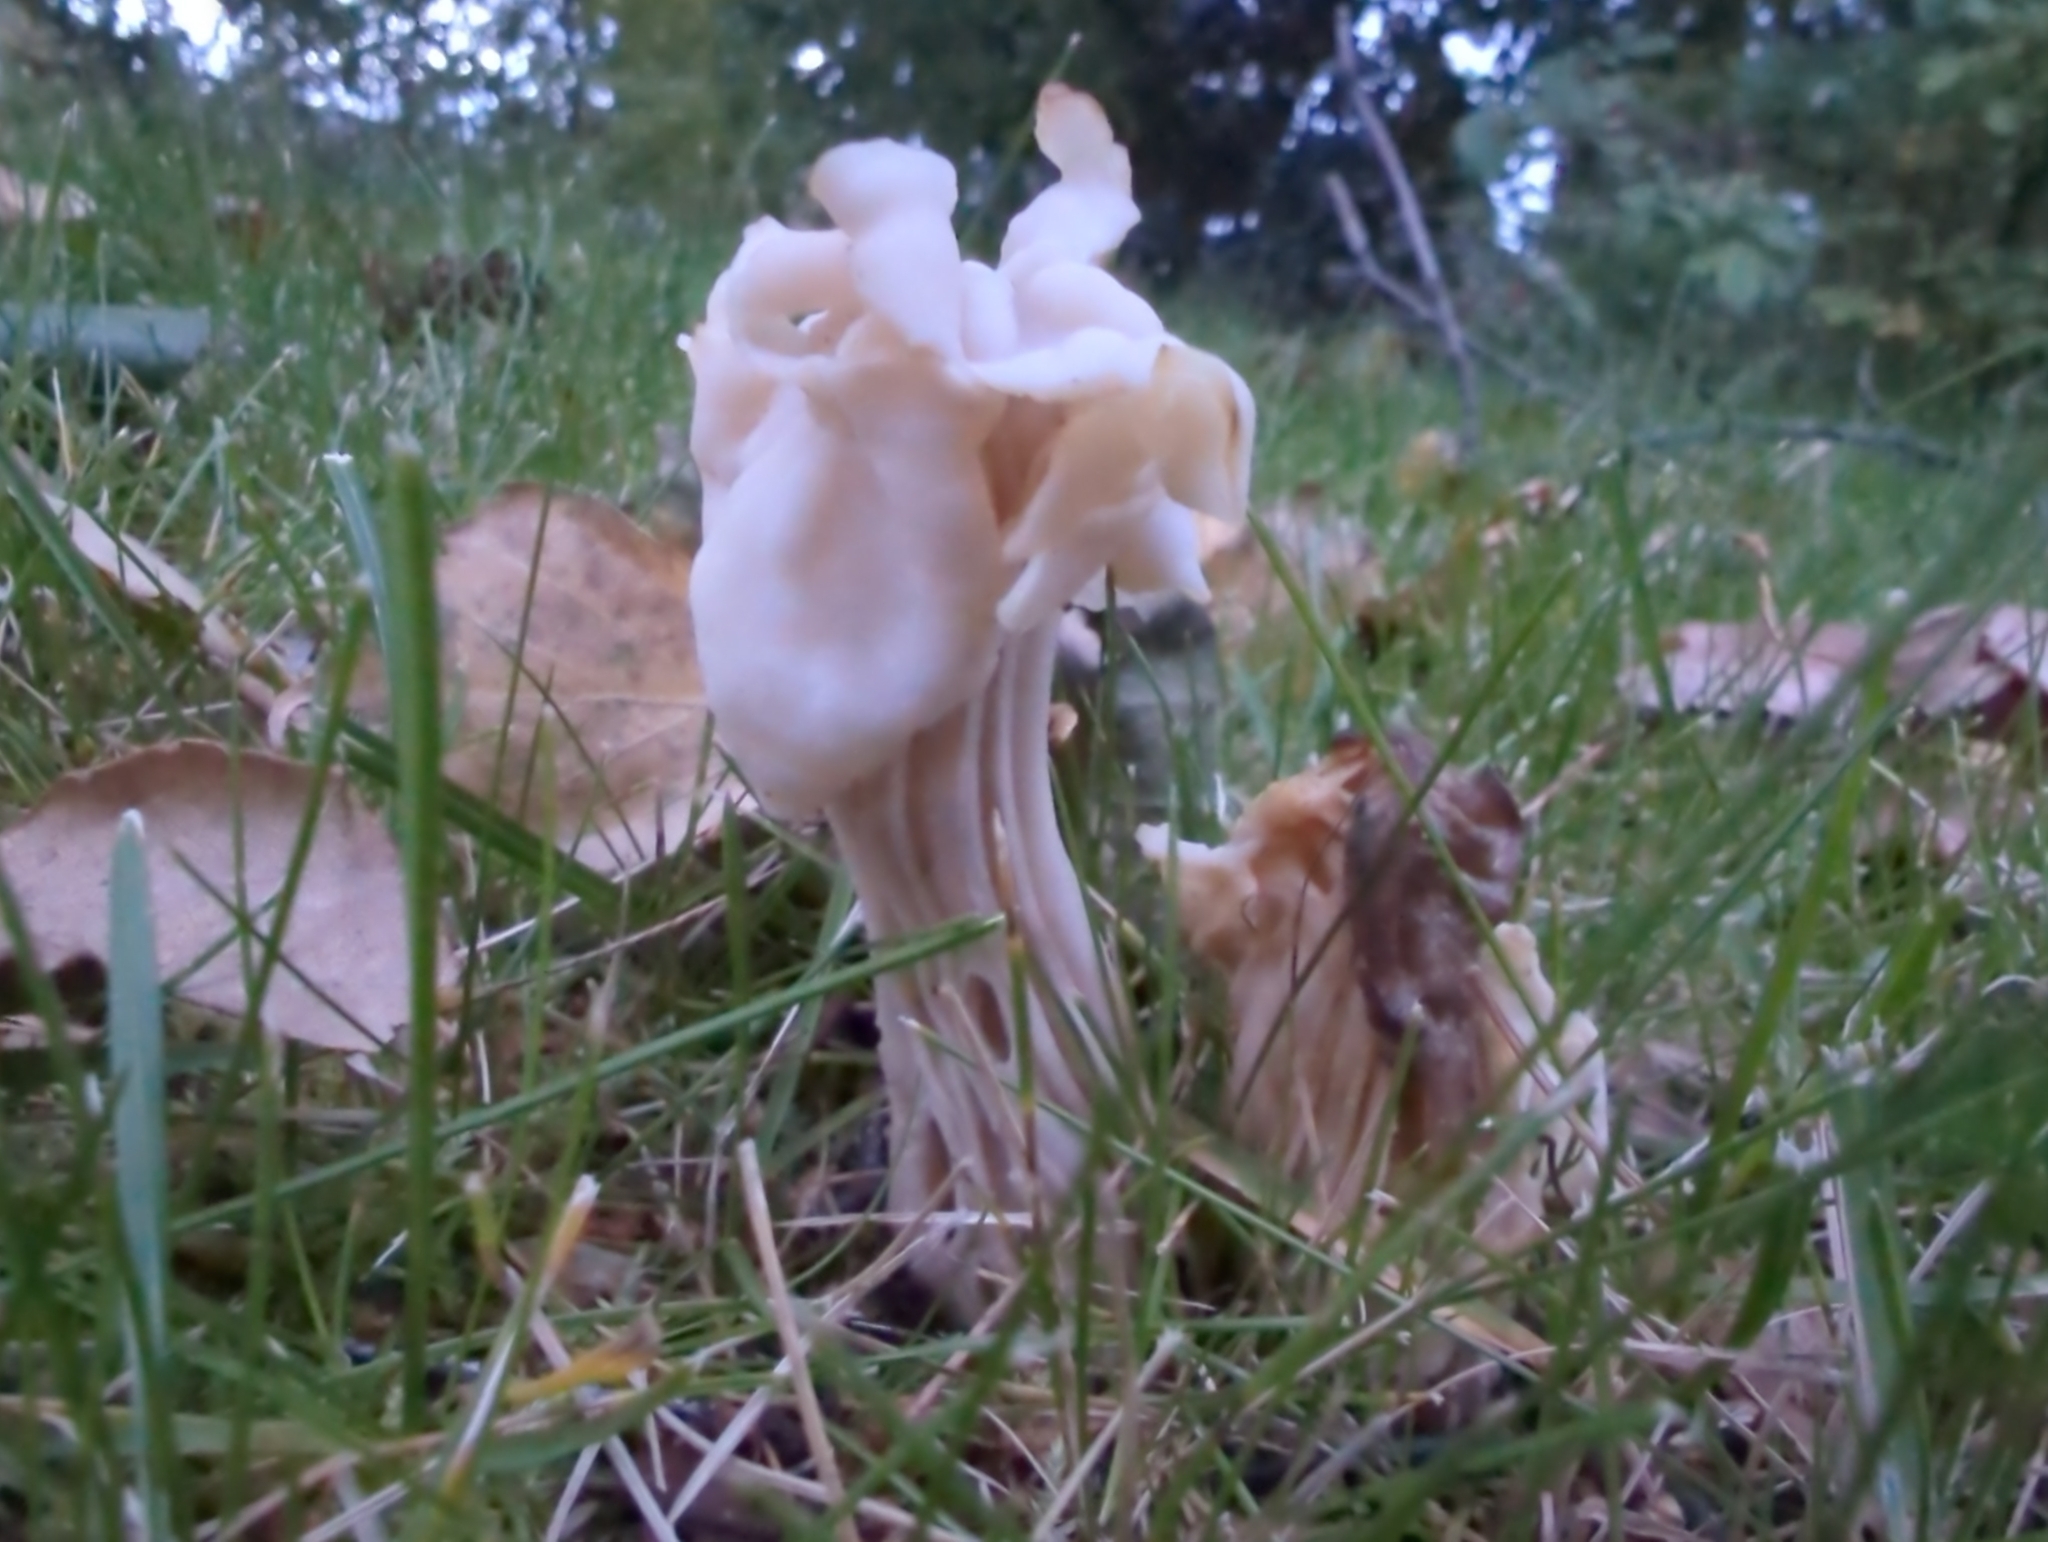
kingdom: Fungi
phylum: Ascomycota
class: Pezizomycetes
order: Pezizales
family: Helvellaceae
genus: Helvella
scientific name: Helvella crispa
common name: White saddle
